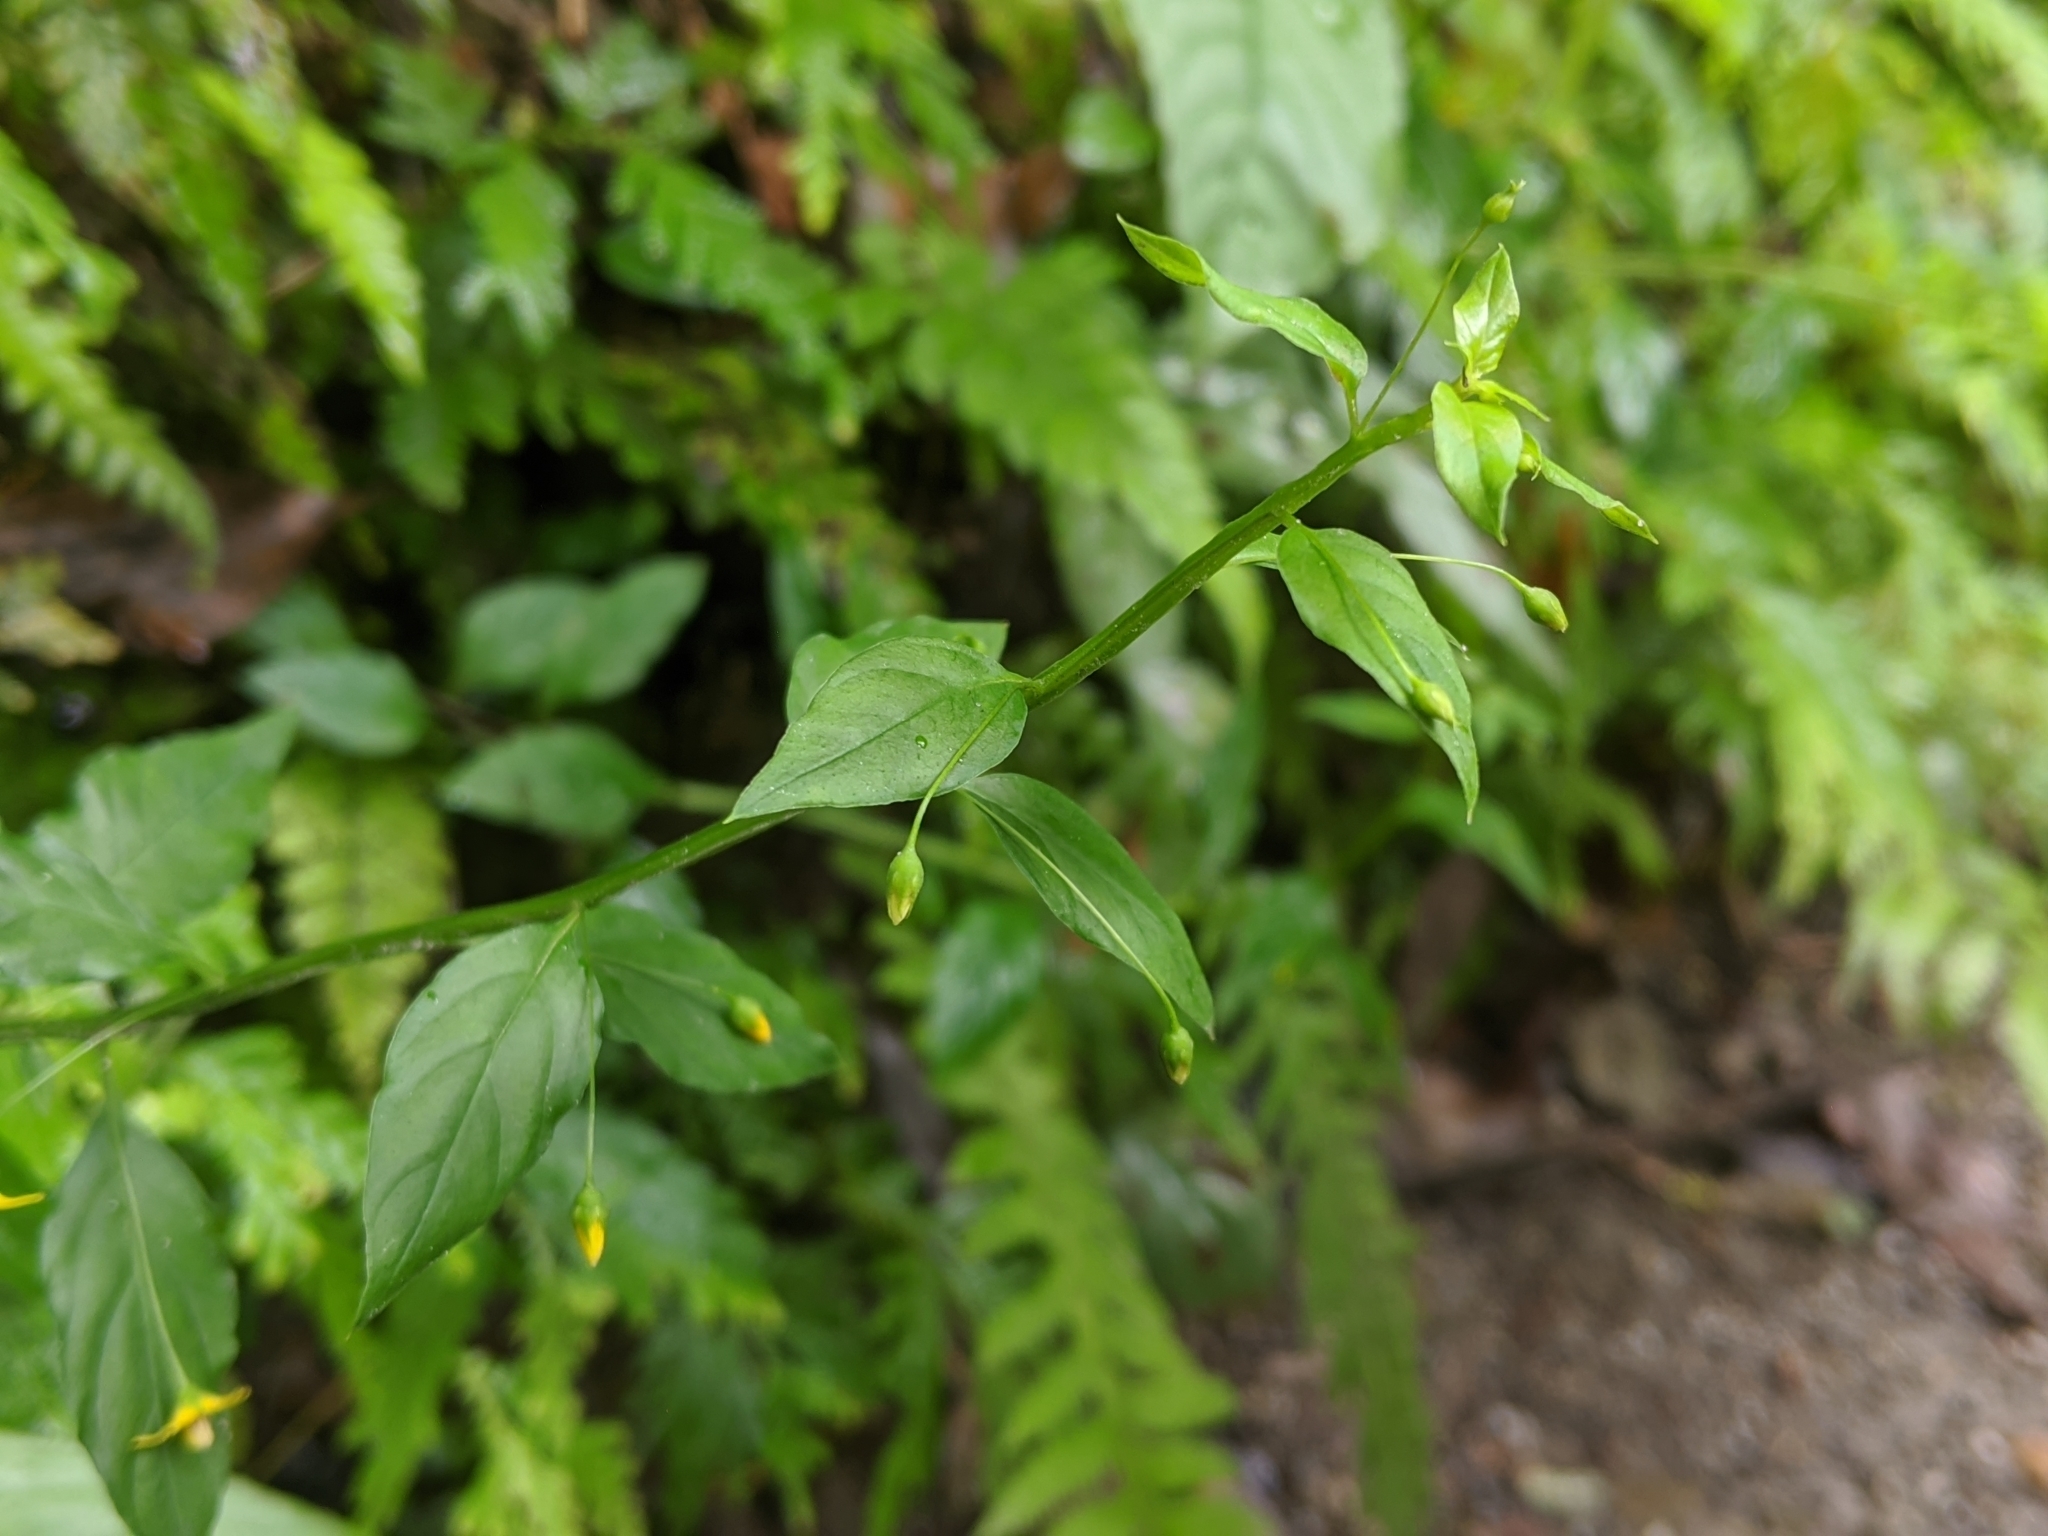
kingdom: Plantae
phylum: Tracheophyta
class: Magnoliopsida
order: Ericales
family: Primulaceae
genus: Lysimachia
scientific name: Lysimachia capillipes
